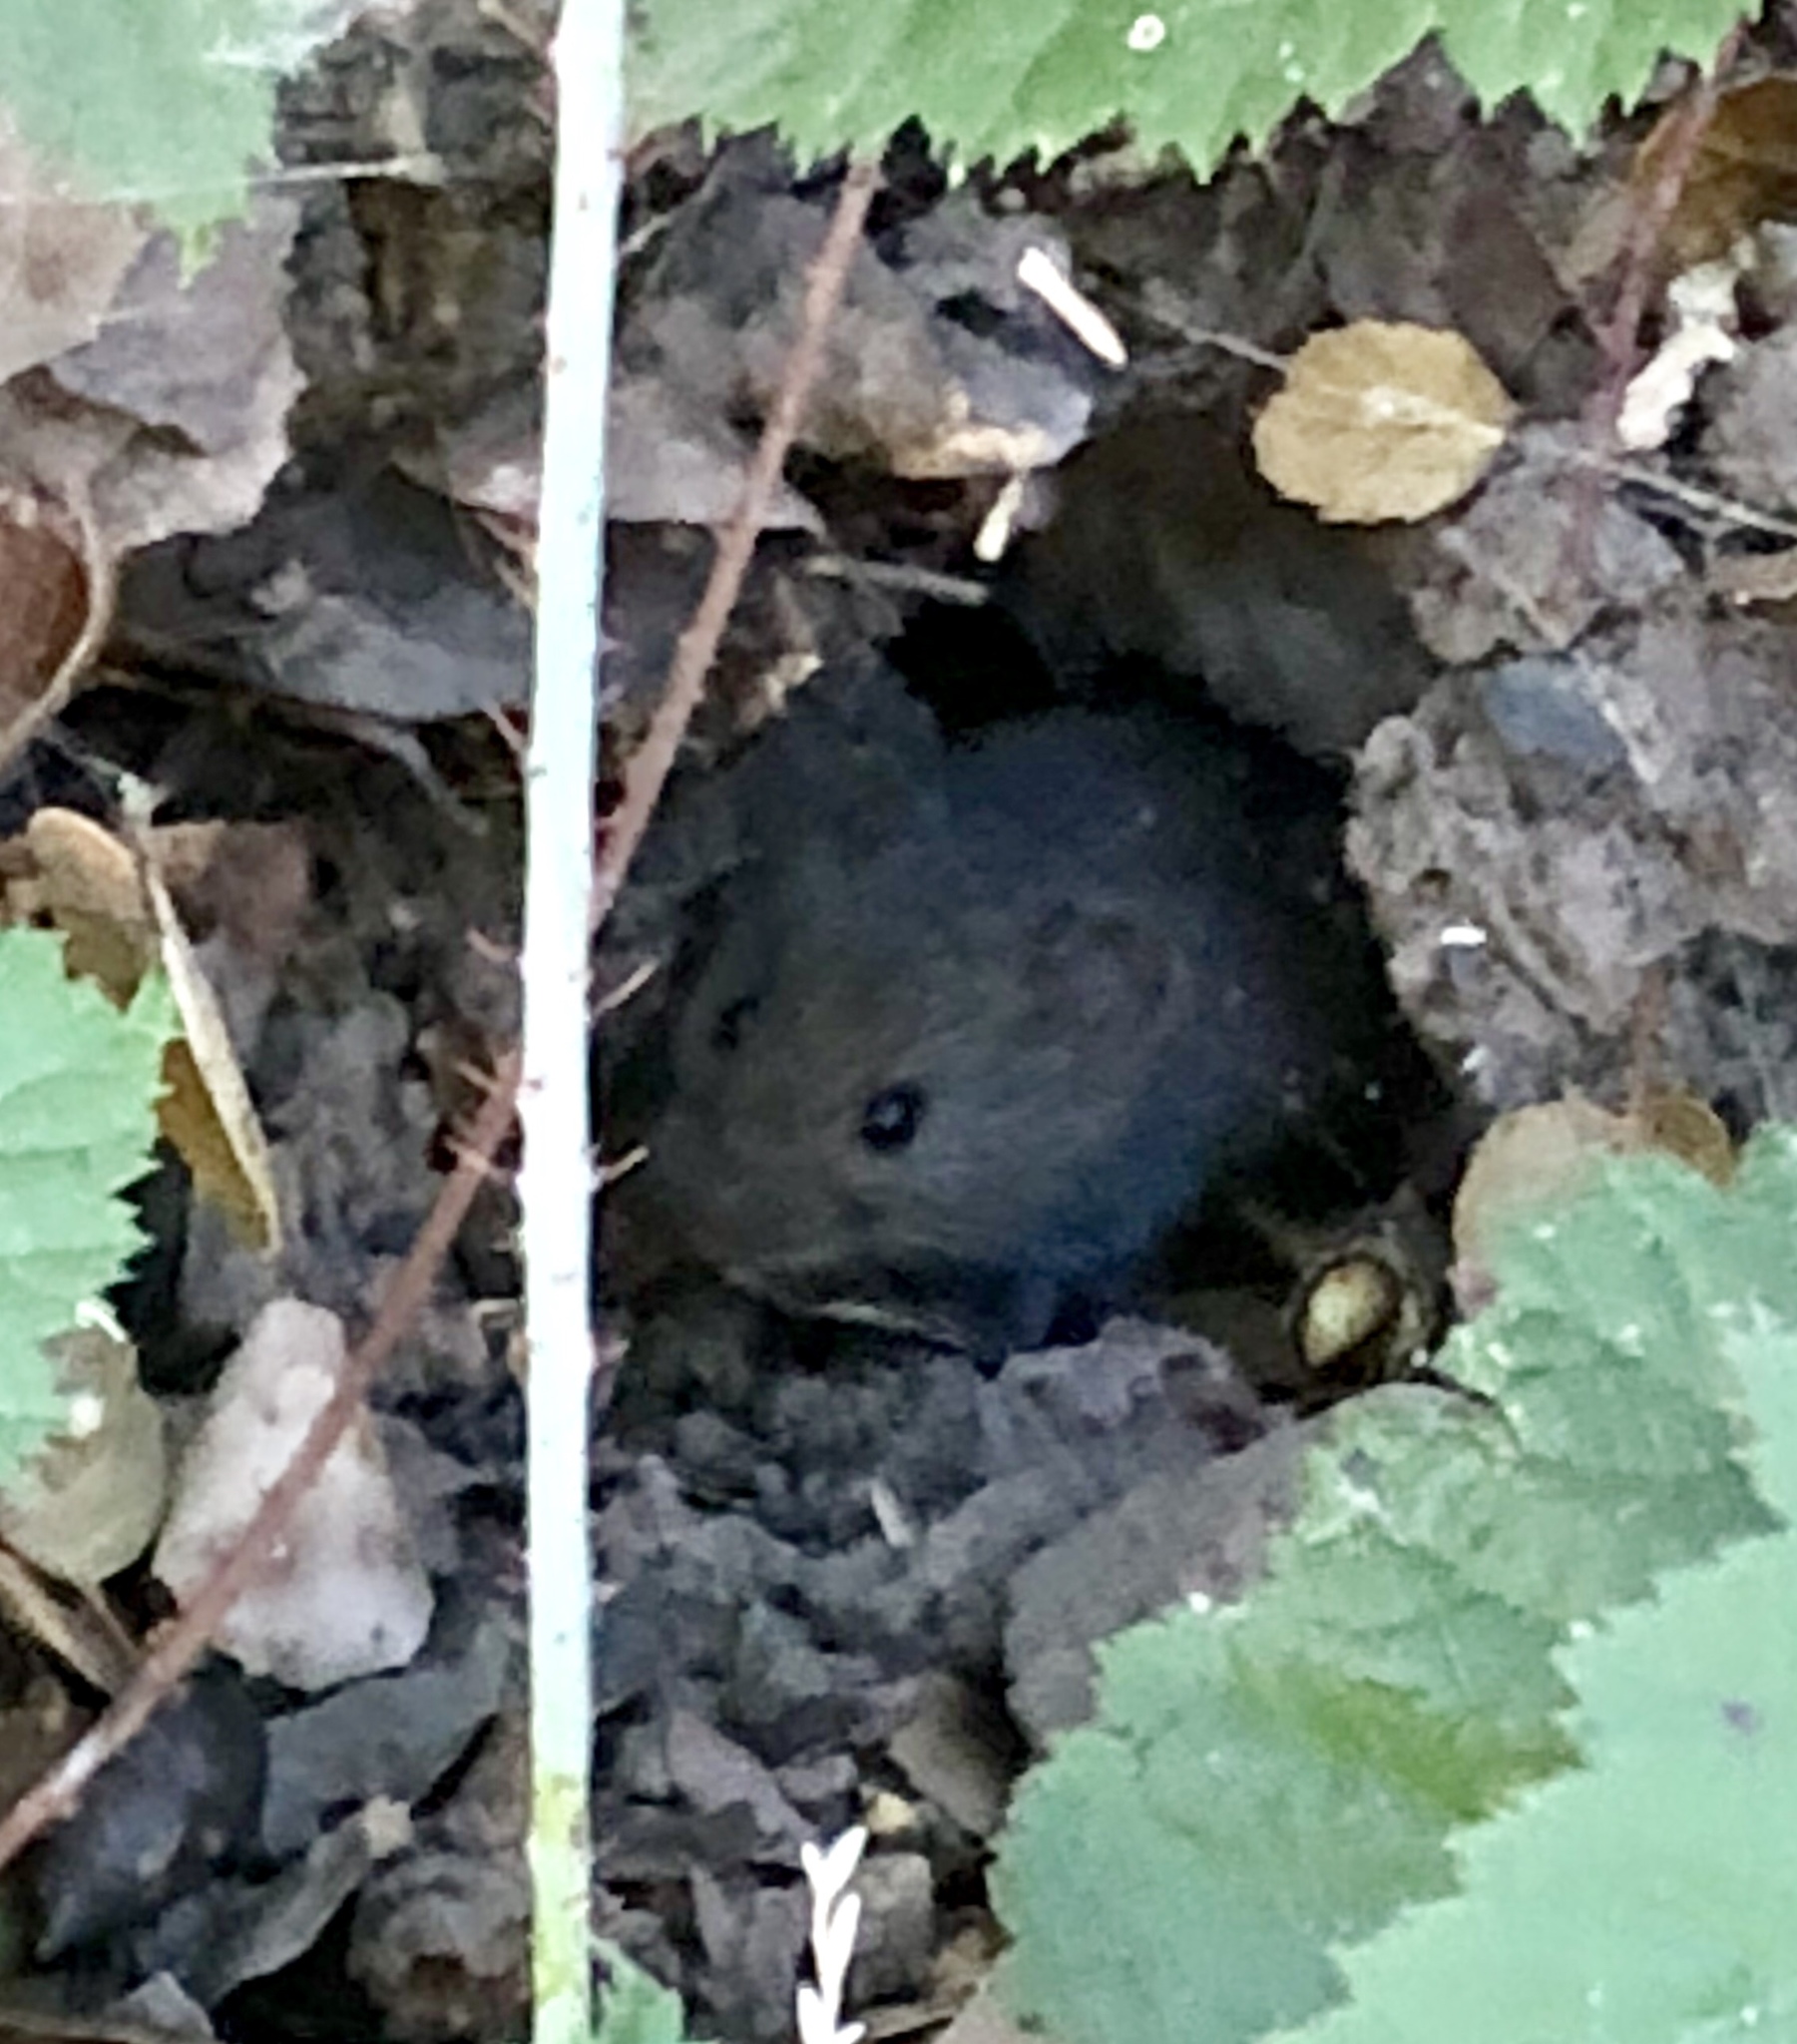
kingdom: Animalia
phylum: Chordata
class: Mammalia
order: Rodentia
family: Cricetidae
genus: Microtus
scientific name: Microtus californicus
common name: California vole
